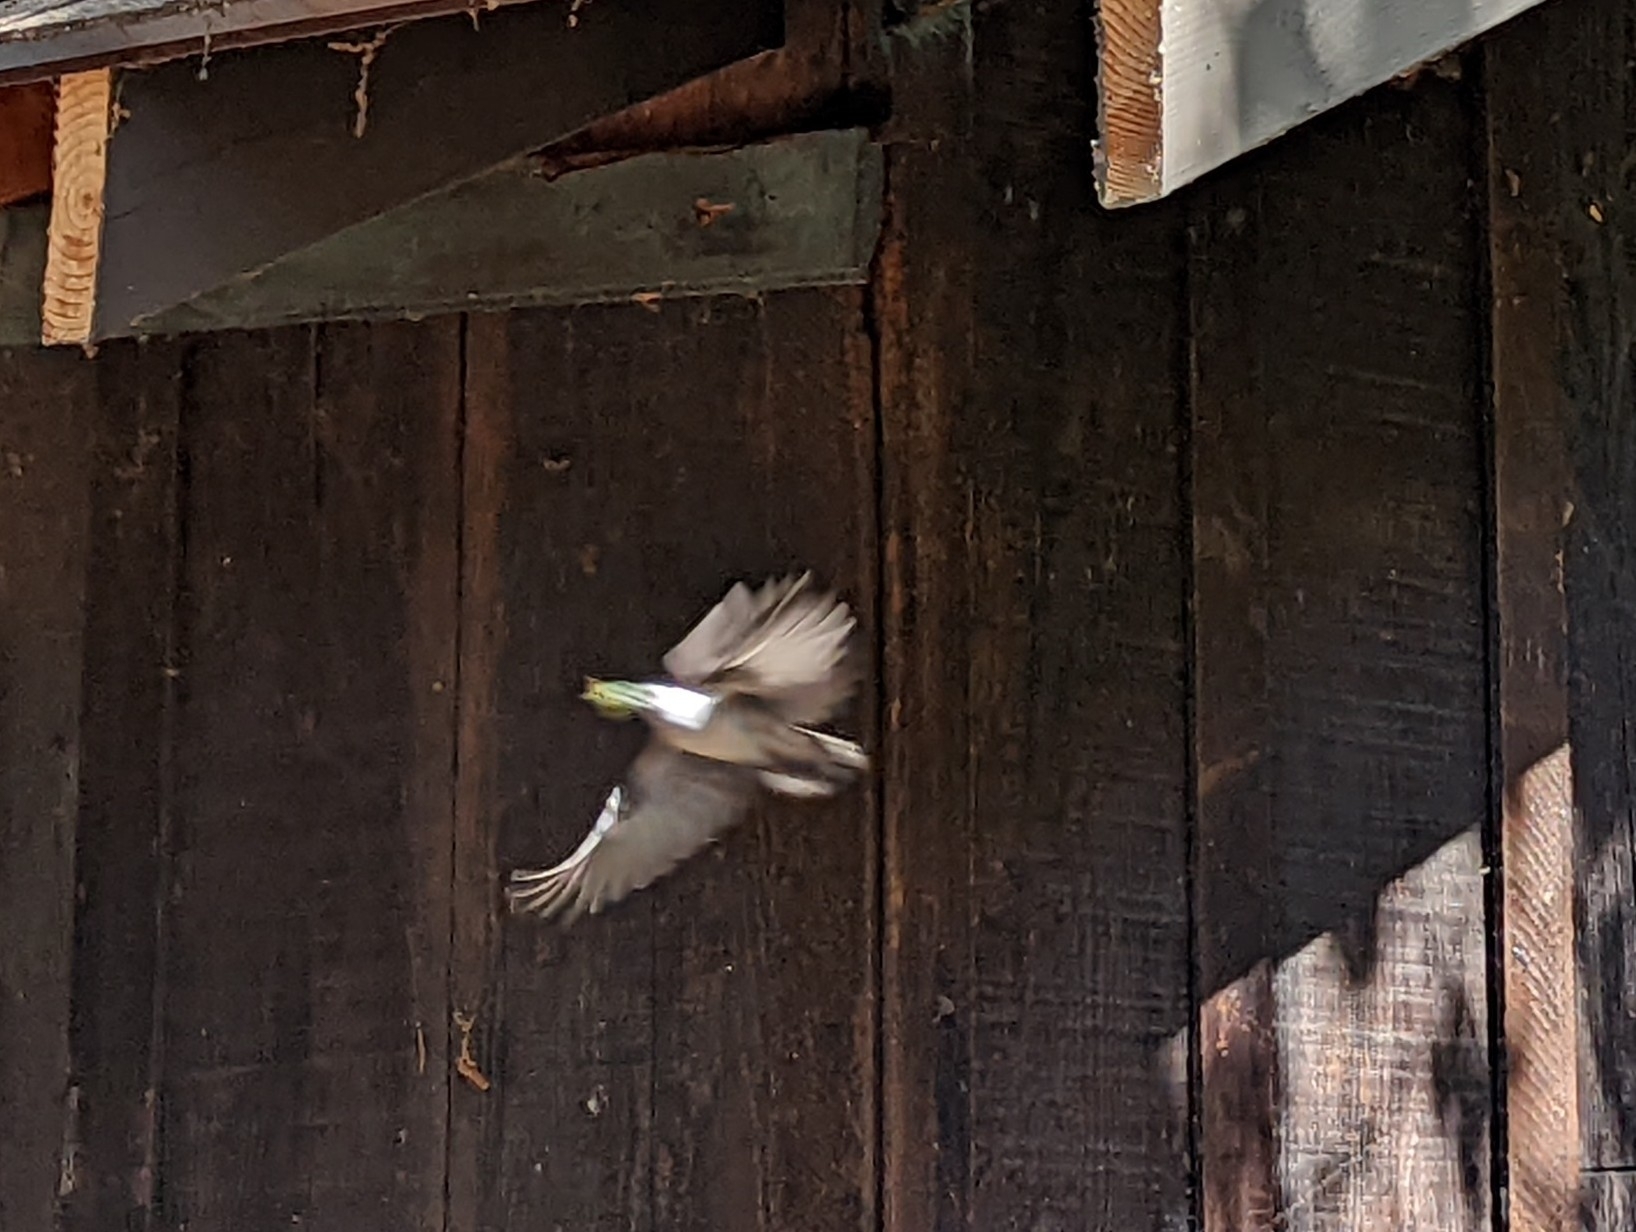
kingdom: Animalia
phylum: Chordata
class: Aves
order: Passeriformes
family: Sittidae
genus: Sitta
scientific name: Sitta carolinensis
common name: White-breasted nuthatch
